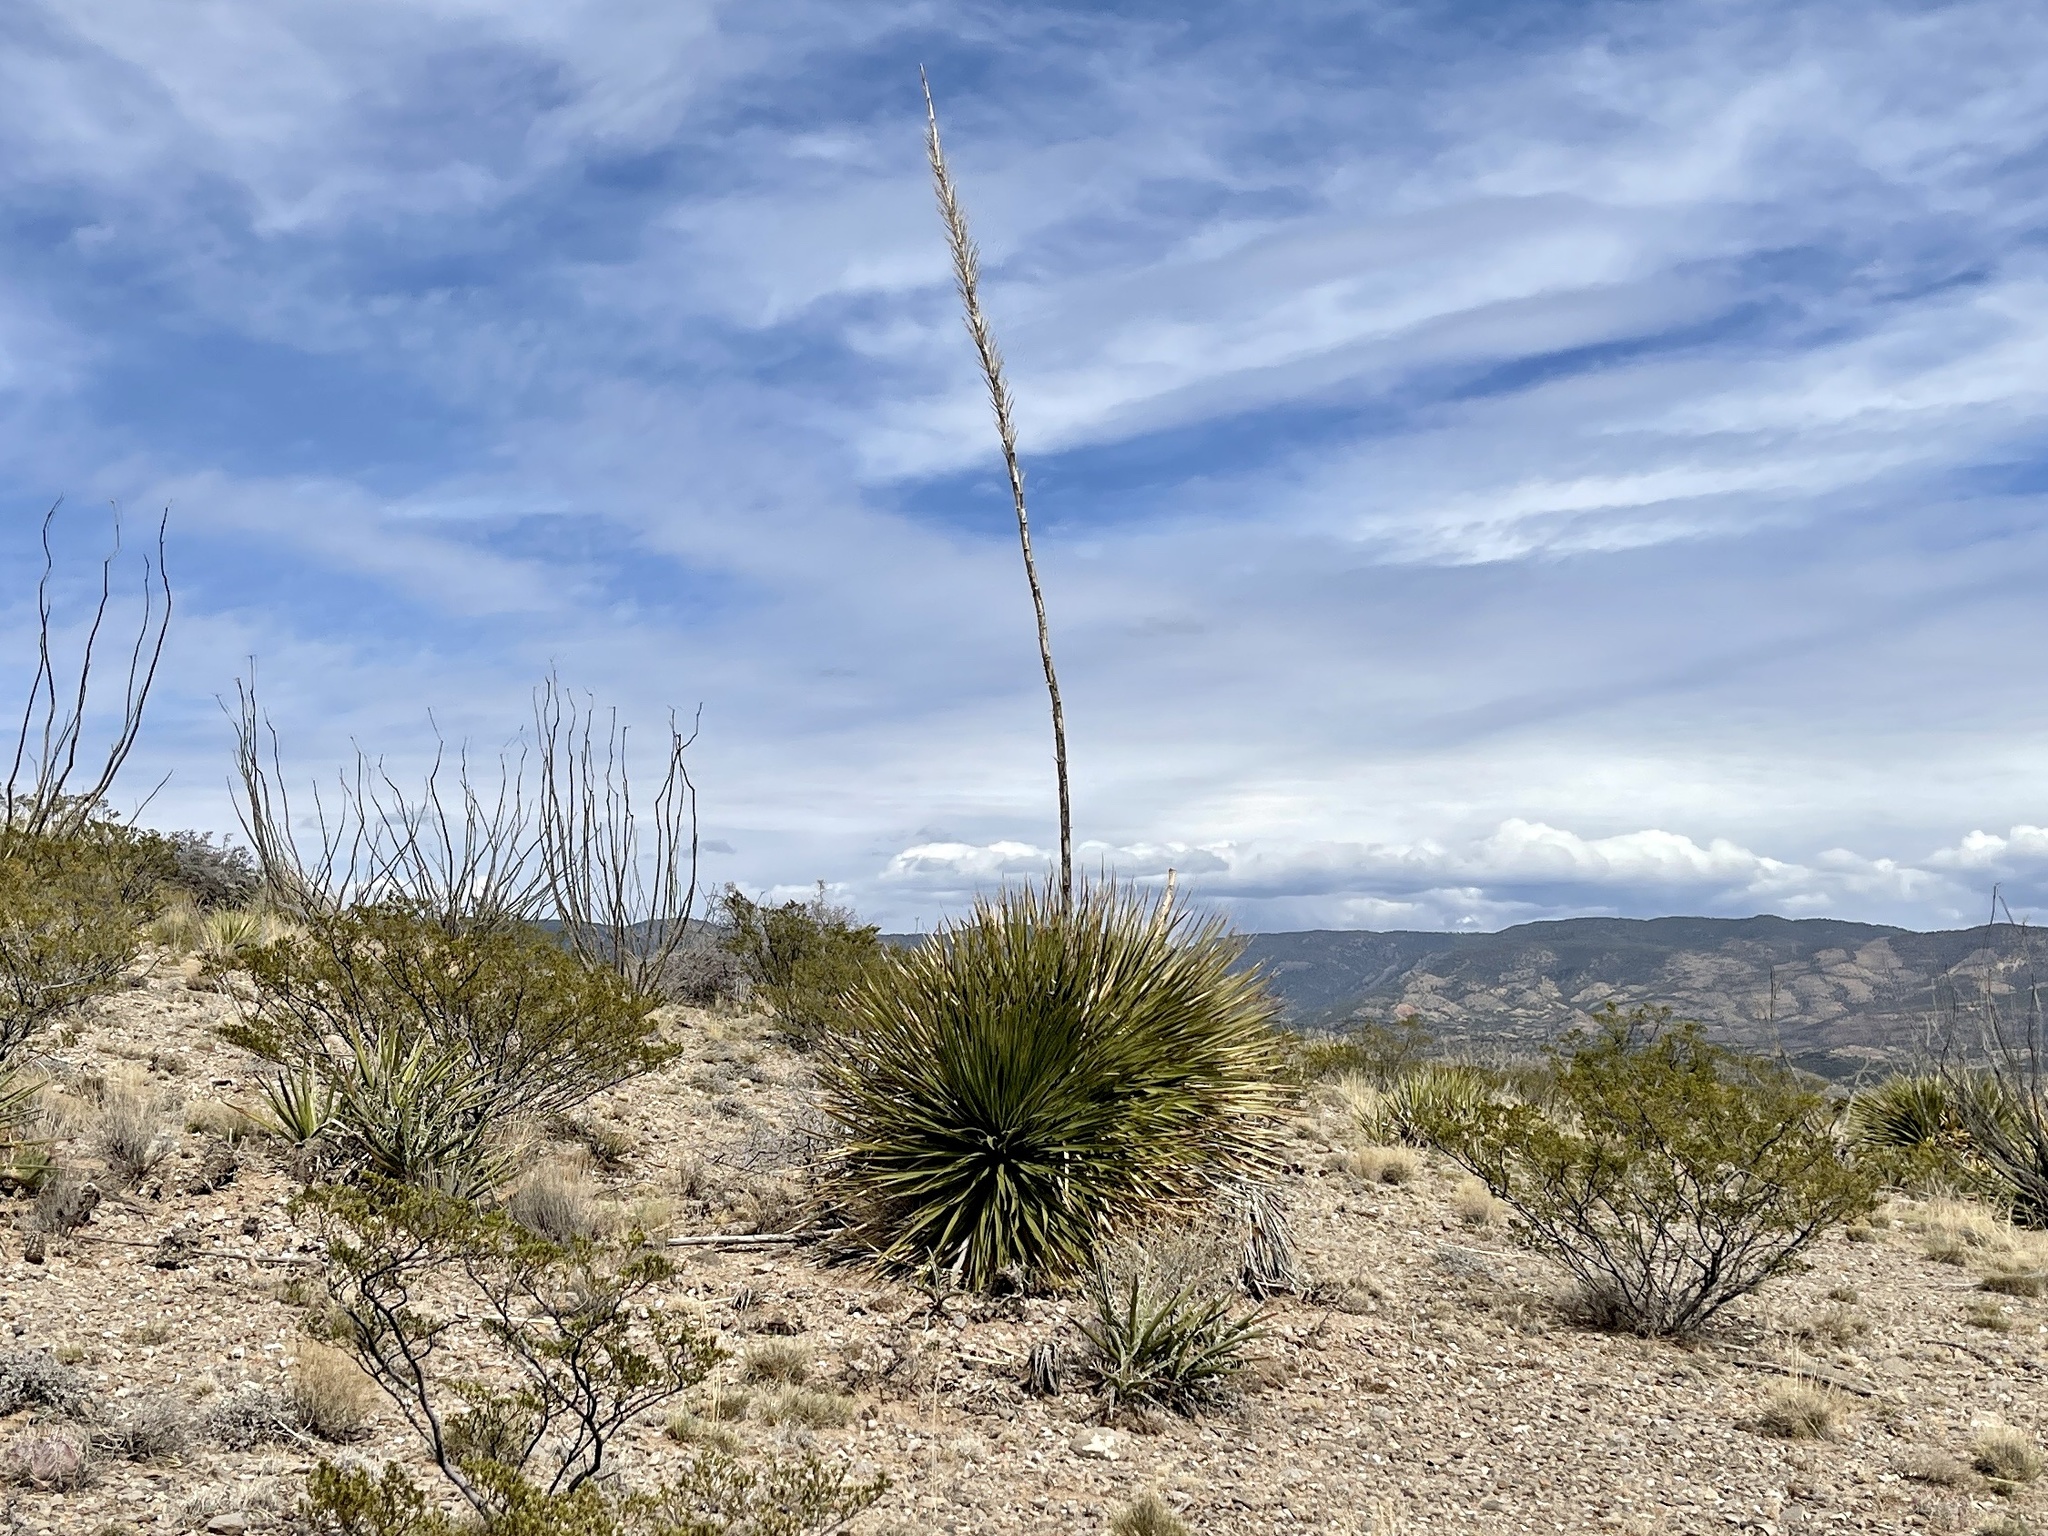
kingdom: Plantae
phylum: Tracheophyta
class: Liliopsida
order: Asparagales
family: Asparagaceae
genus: Dasylirion
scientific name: Dasylirion wheeleri
